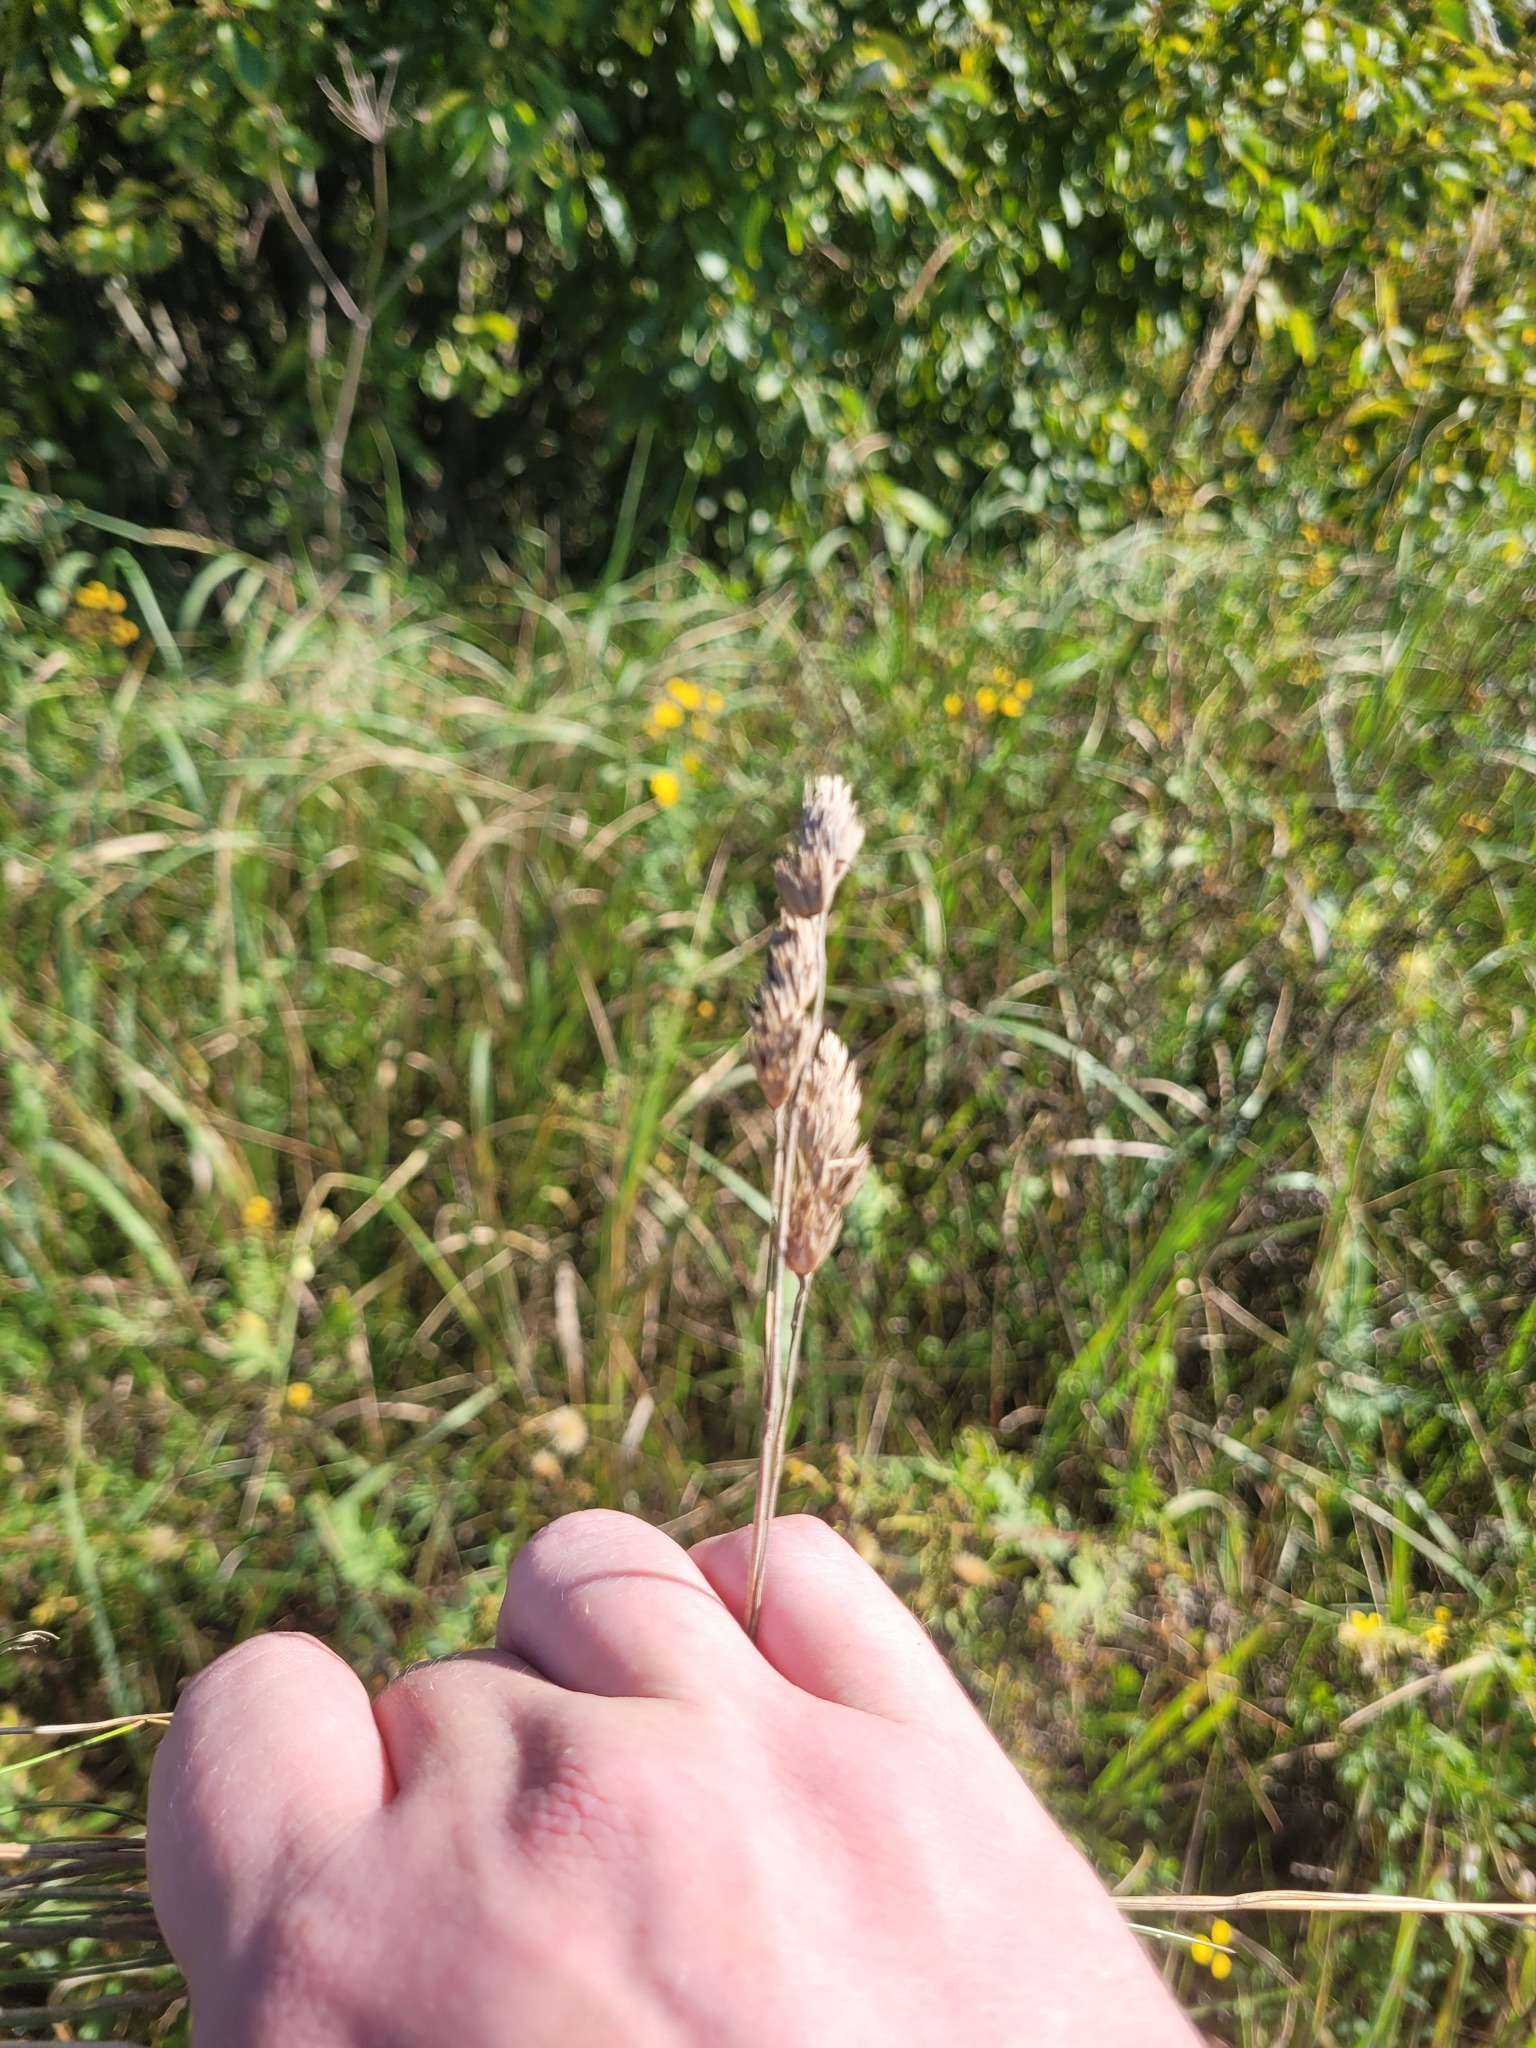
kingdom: Plantae
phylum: Tracheophyta
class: Liliopsida
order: Poales
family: Poaceae
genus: Dactylis
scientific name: Dactylis glomerata
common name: Orchardgrass
